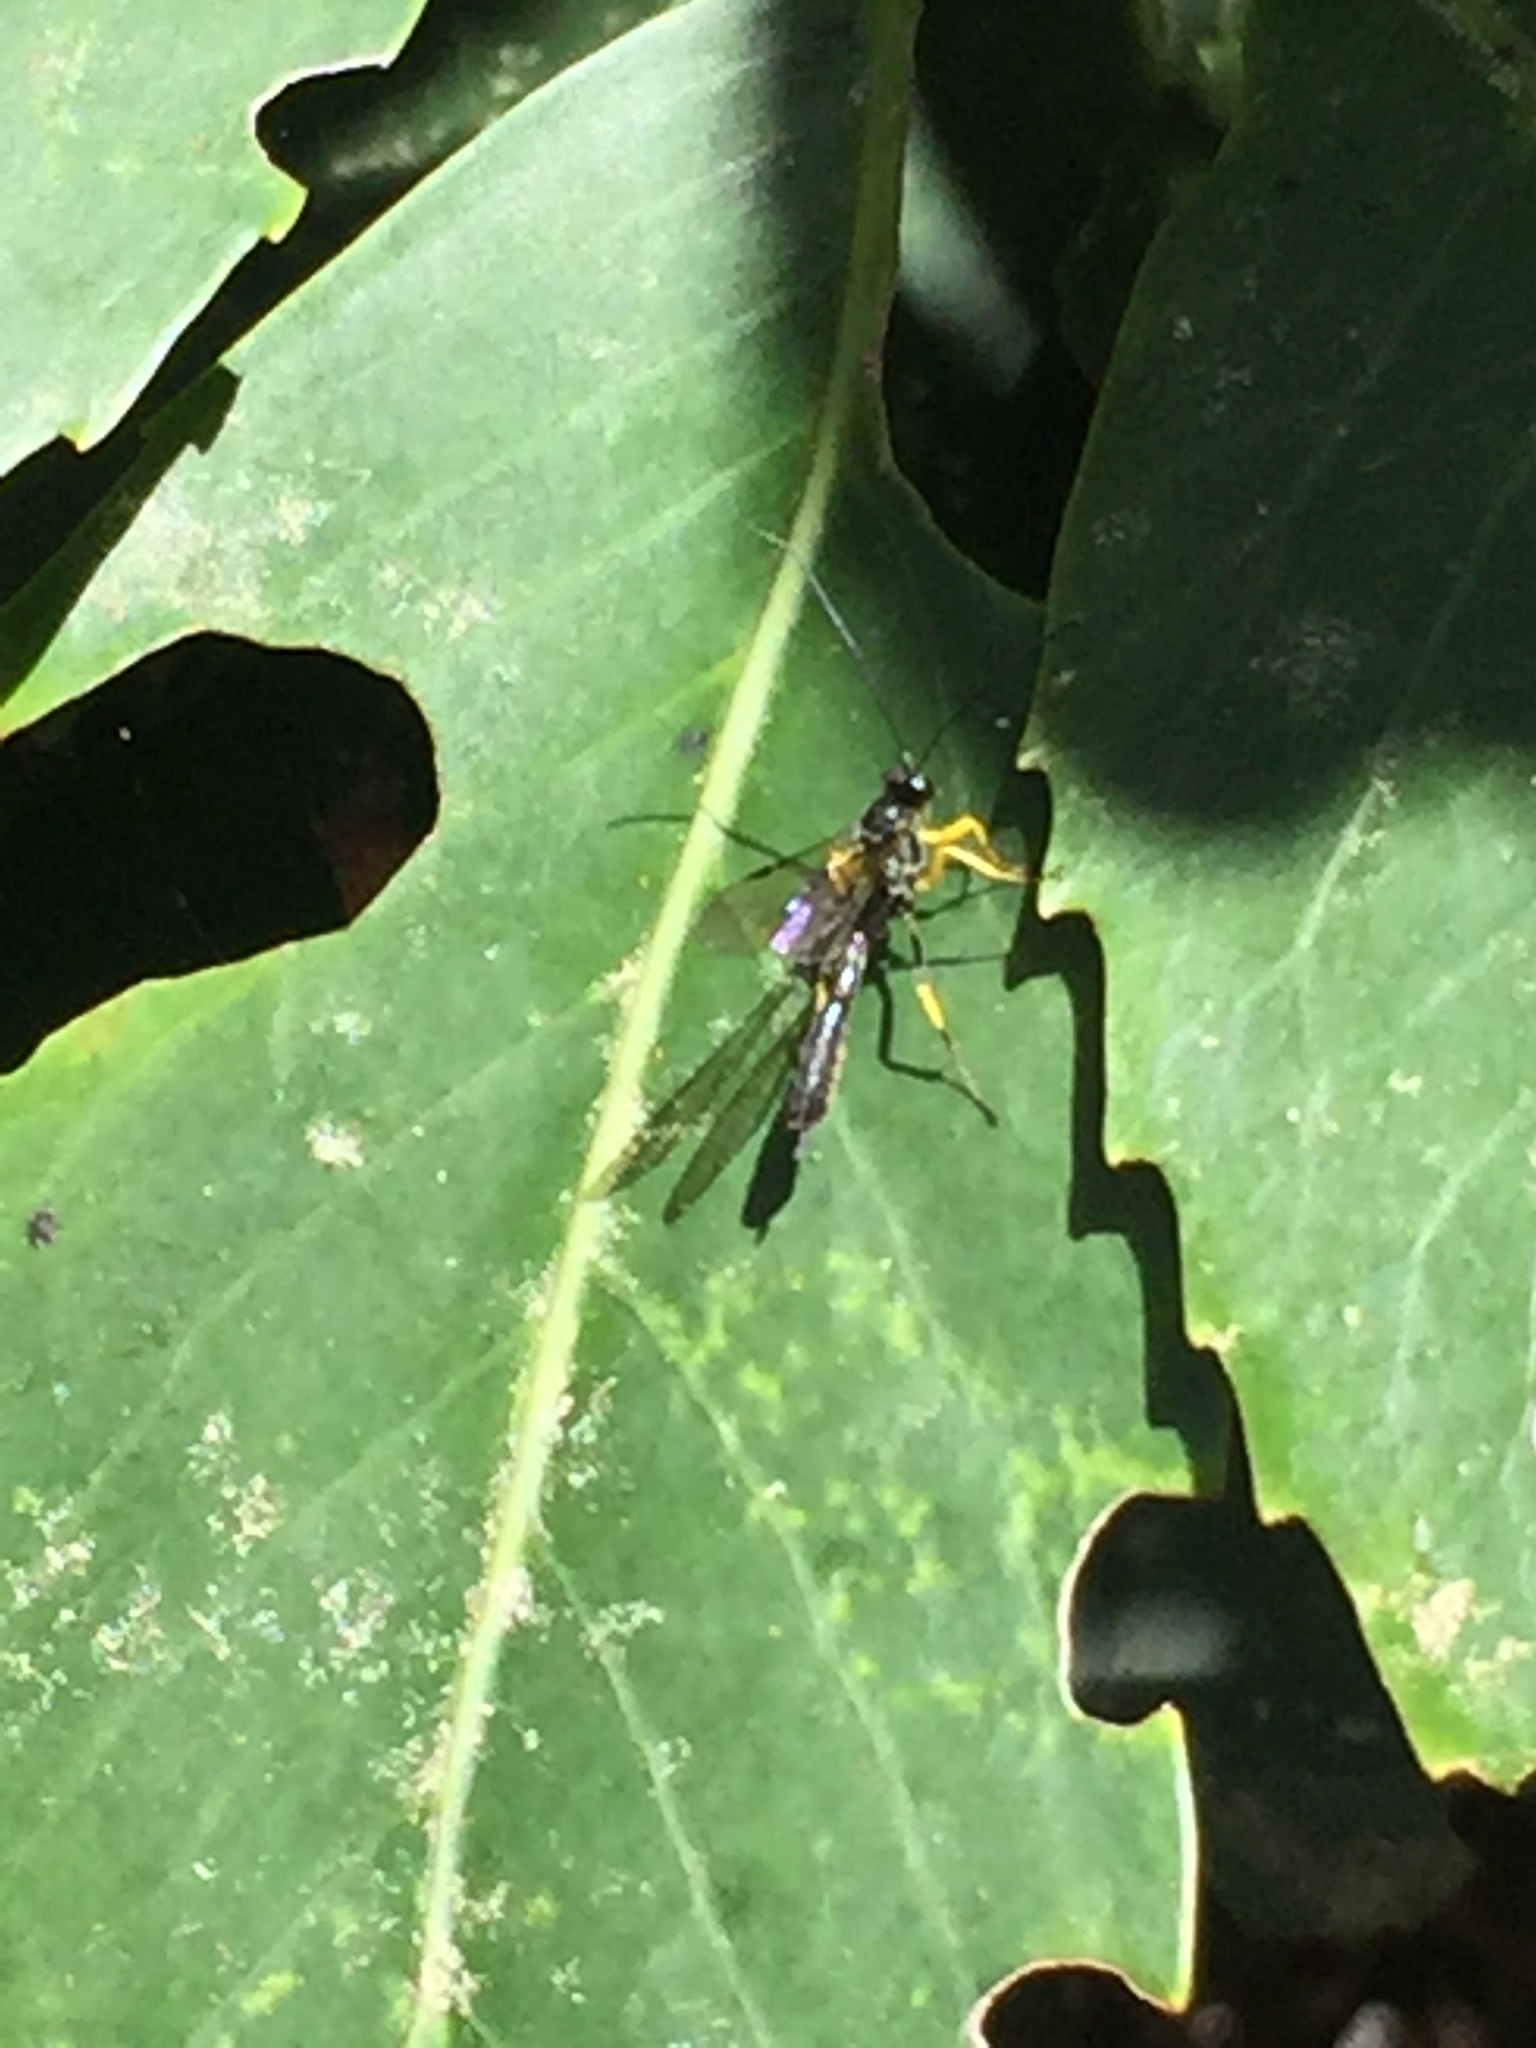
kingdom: Animalia
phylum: Arthropoda
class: Insecta
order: Hymenoptera
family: Ichneumonidae
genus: Dusona
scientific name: Dusona stramineipes
